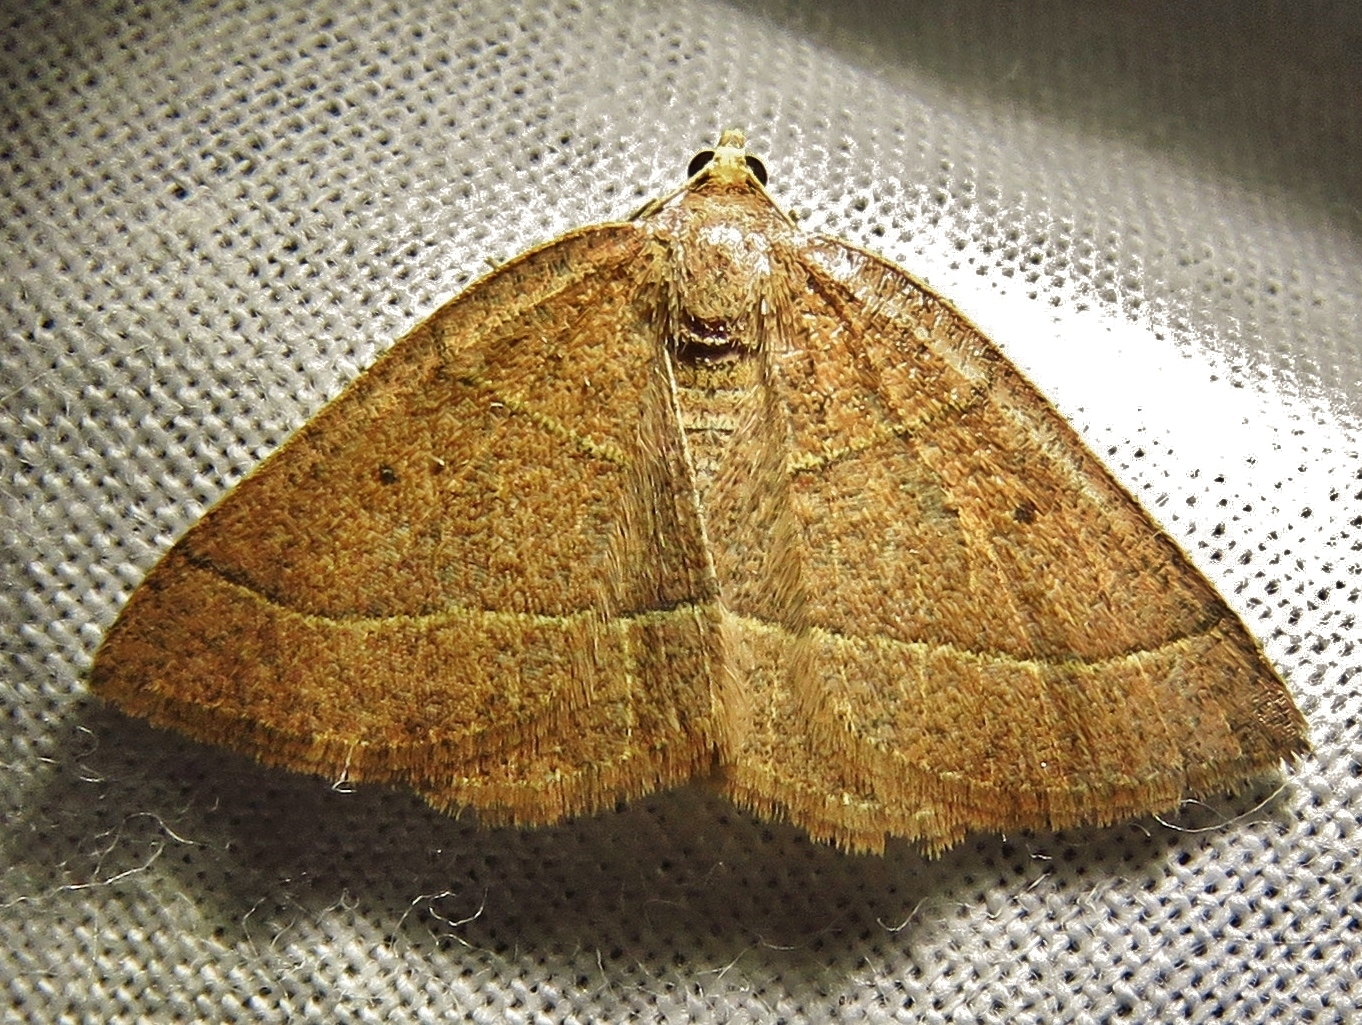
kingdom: Animalia
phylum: Arthropoda
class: Insecta
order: Lepidoptera
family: Geometridae
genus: Episemasia
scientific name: Episemasia cervinaria
